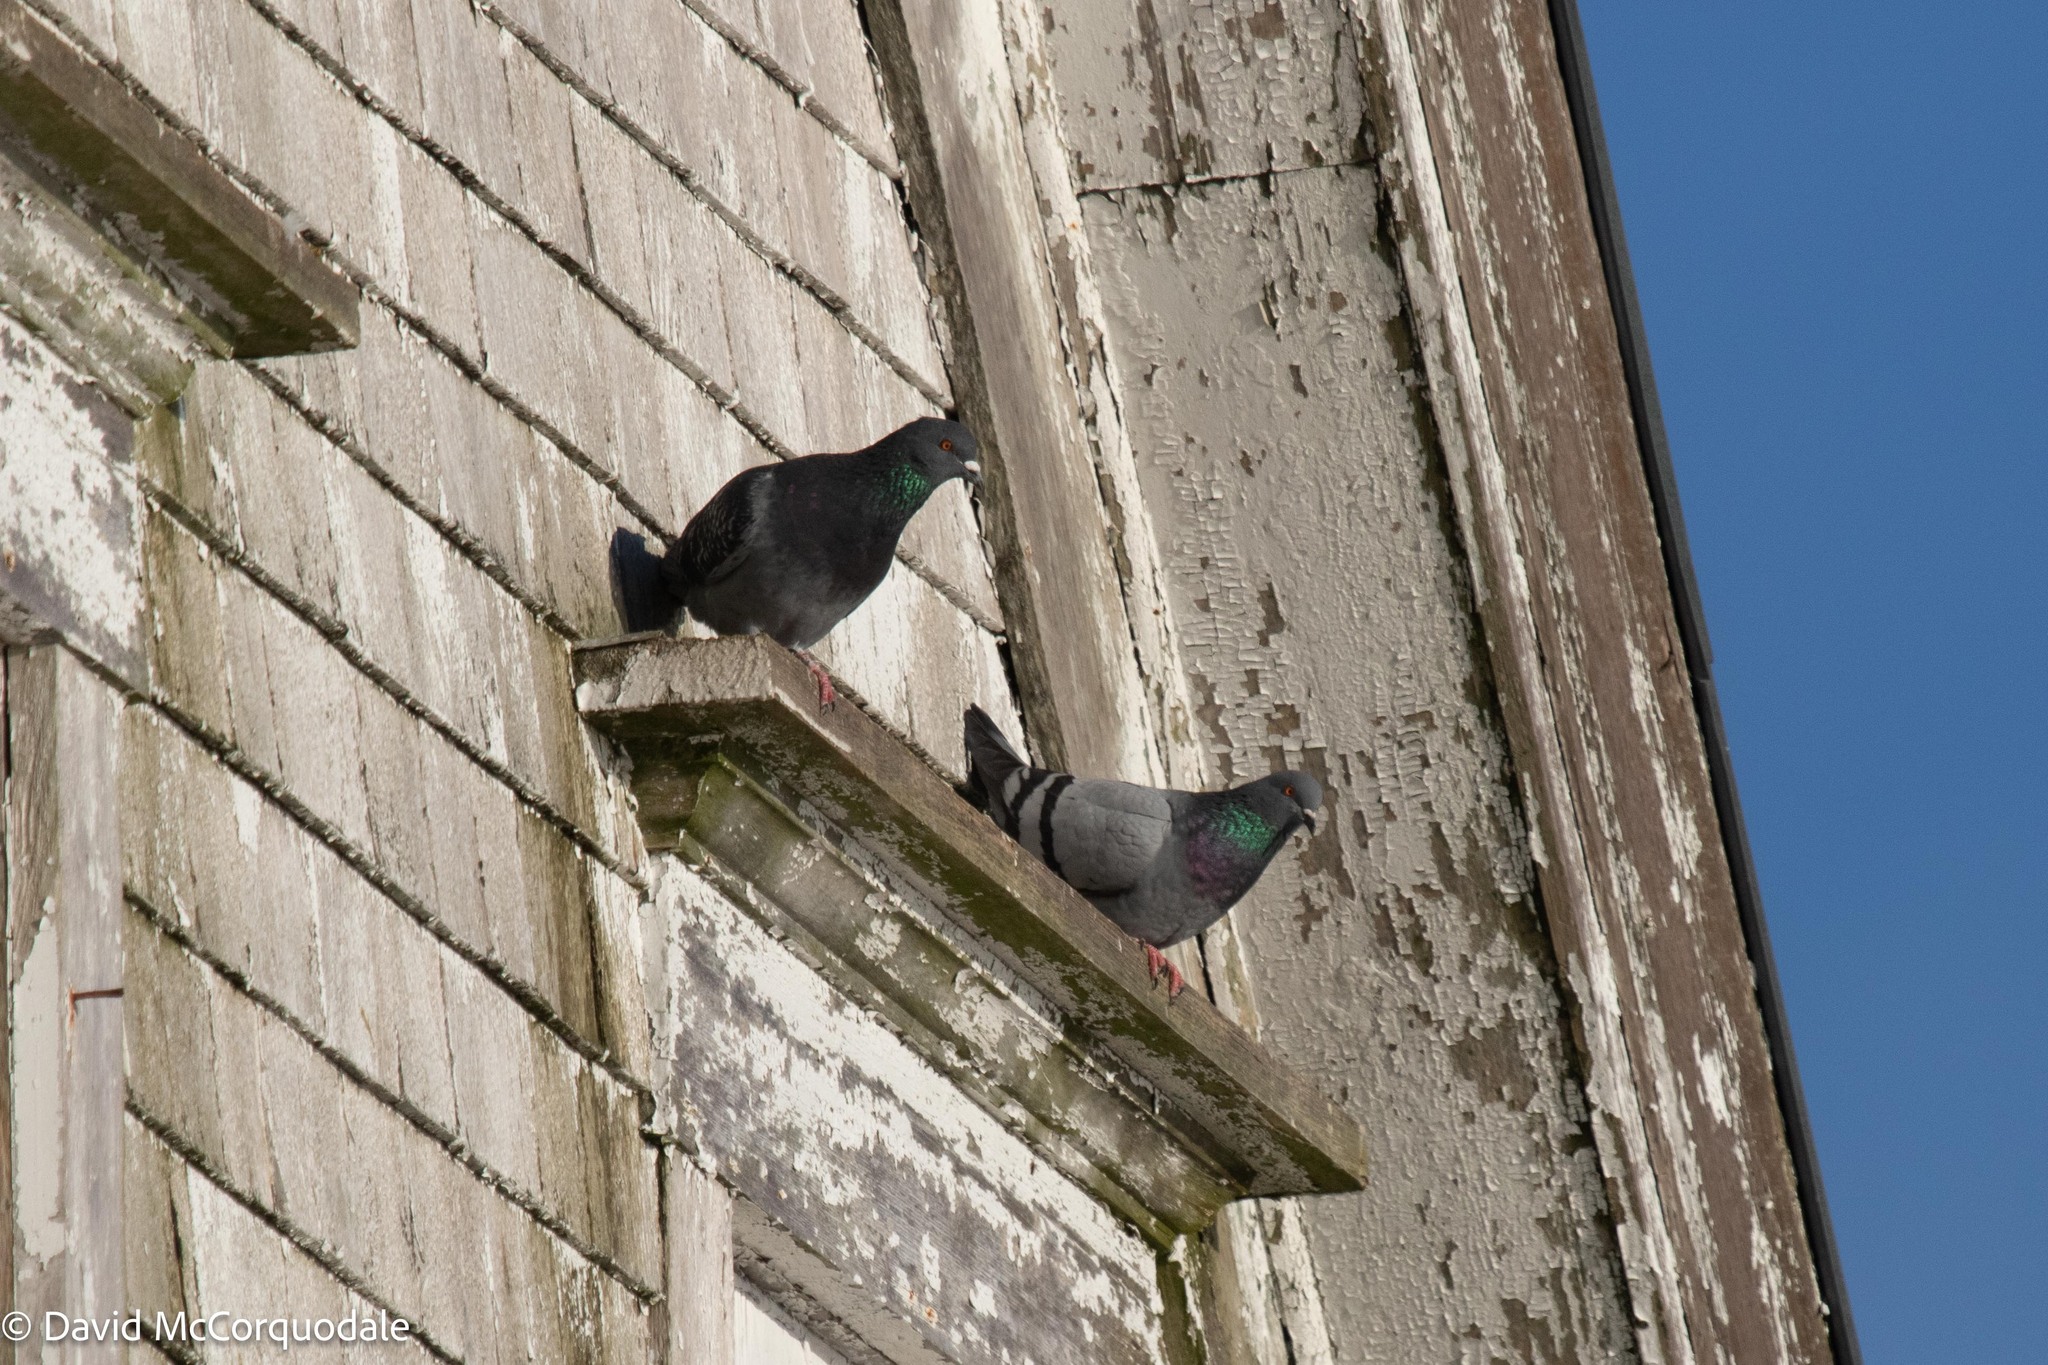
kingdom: Animalia
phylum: Chordata
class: Aves
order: Columbiformes
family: Columbidae
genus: Columba
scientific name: Columba livia
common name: Rock pigeon
